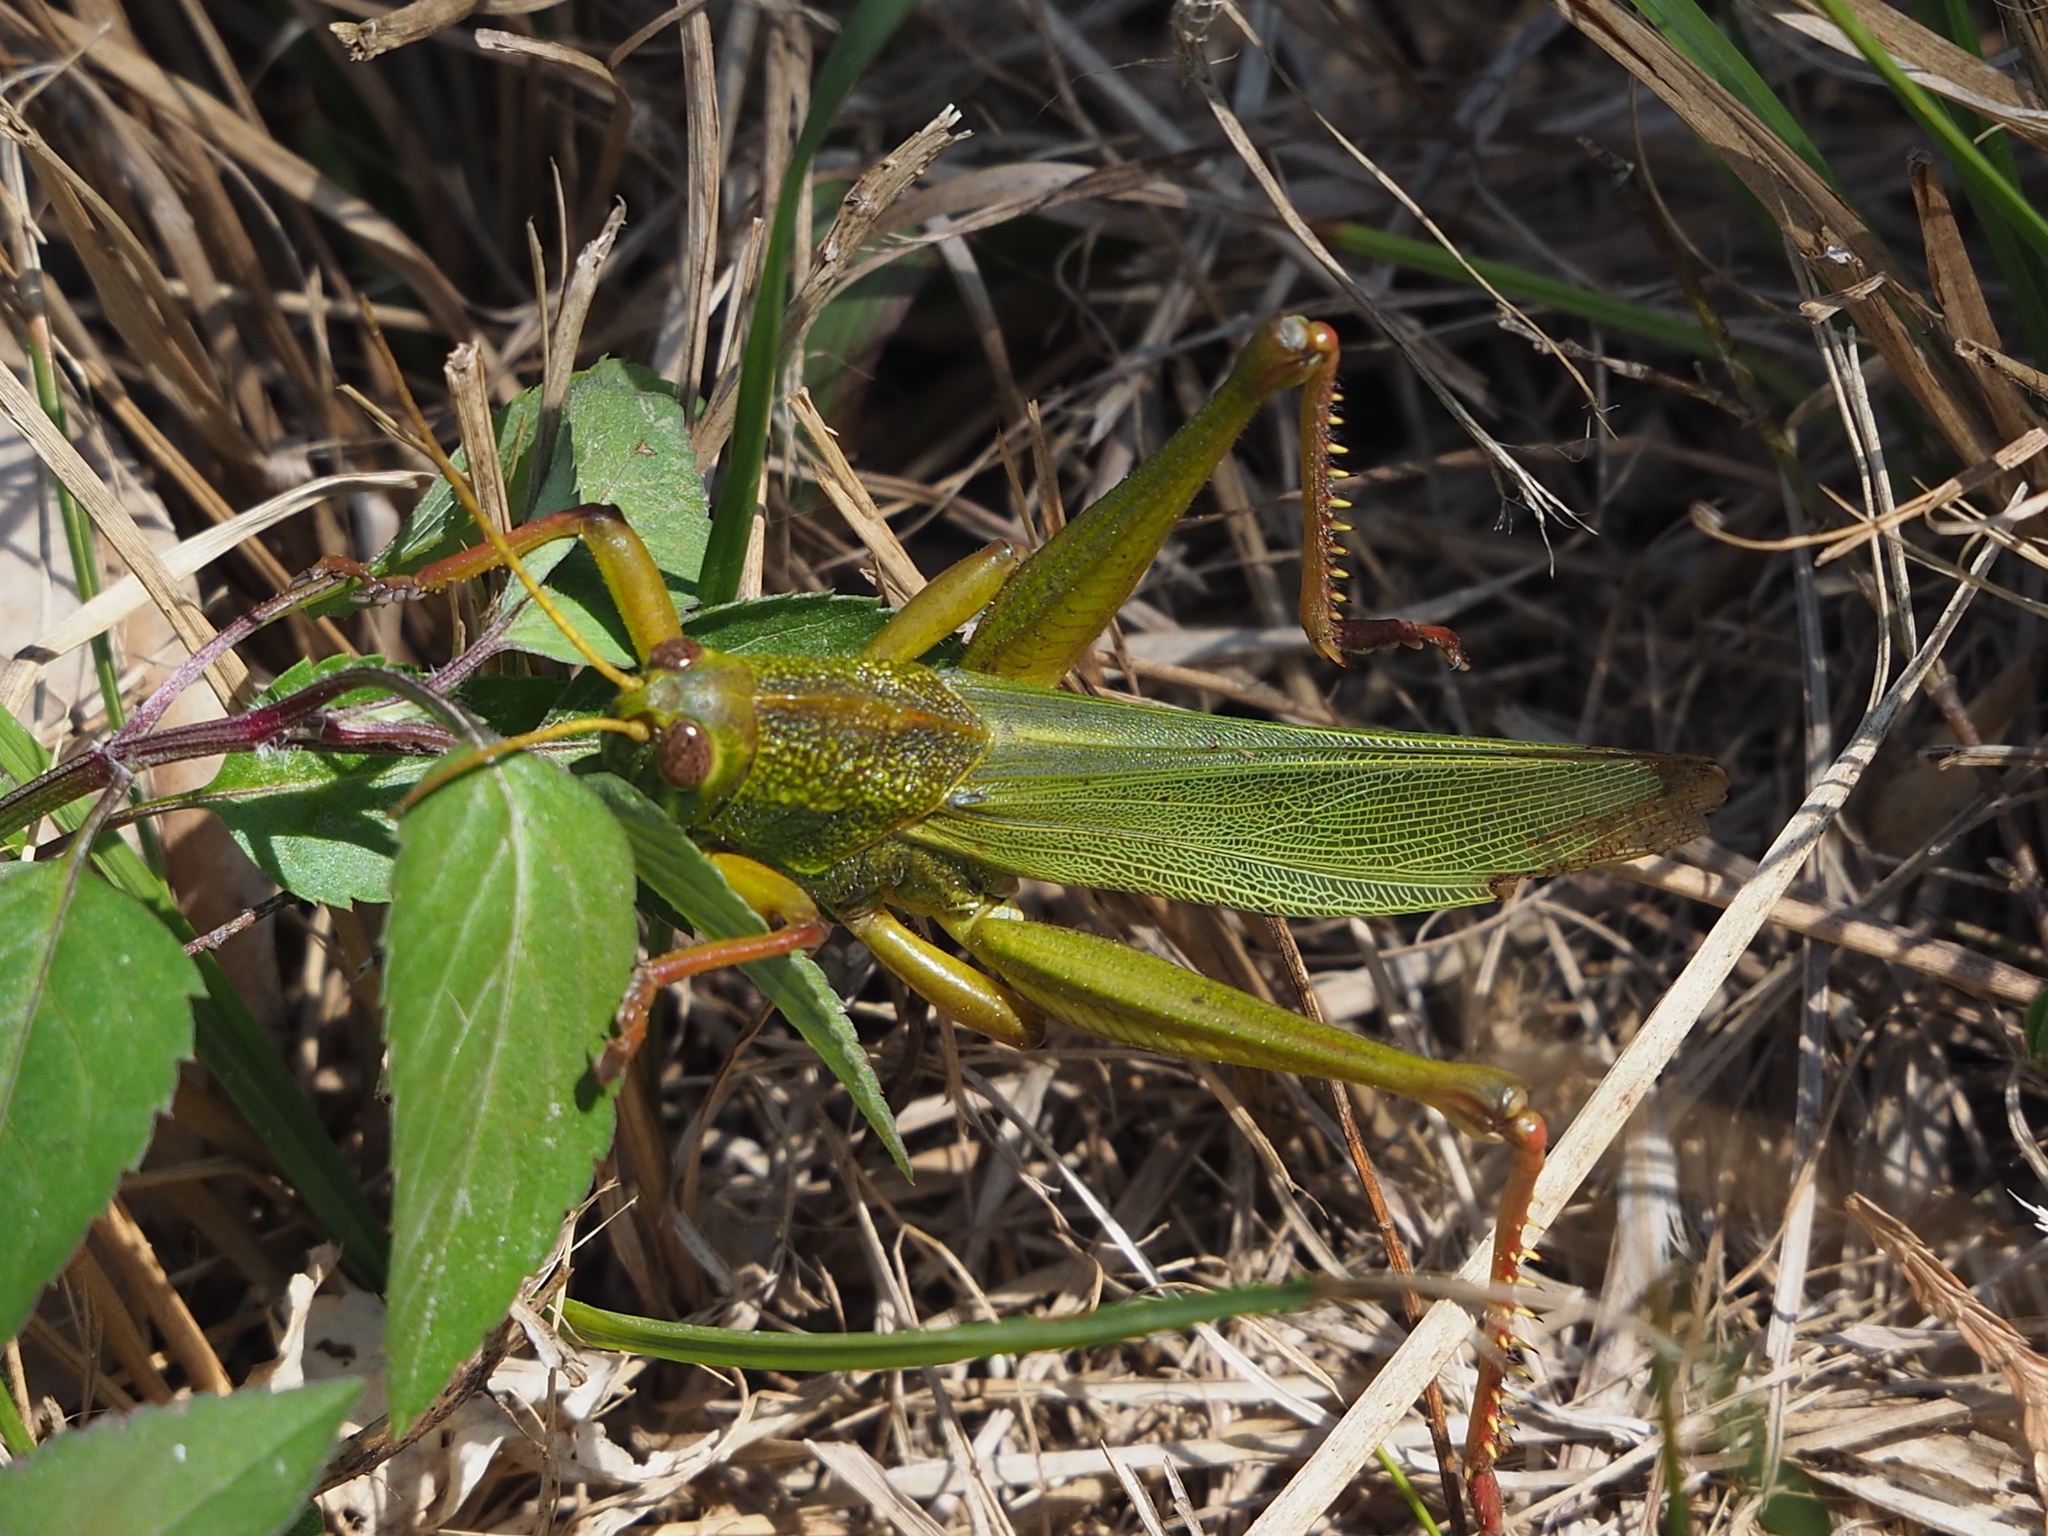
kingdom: Animalia
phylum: Arthropoda
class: Insecta
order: Orthoptera
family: Acrididae
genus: Chondracris
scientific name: Chondracris rosea
